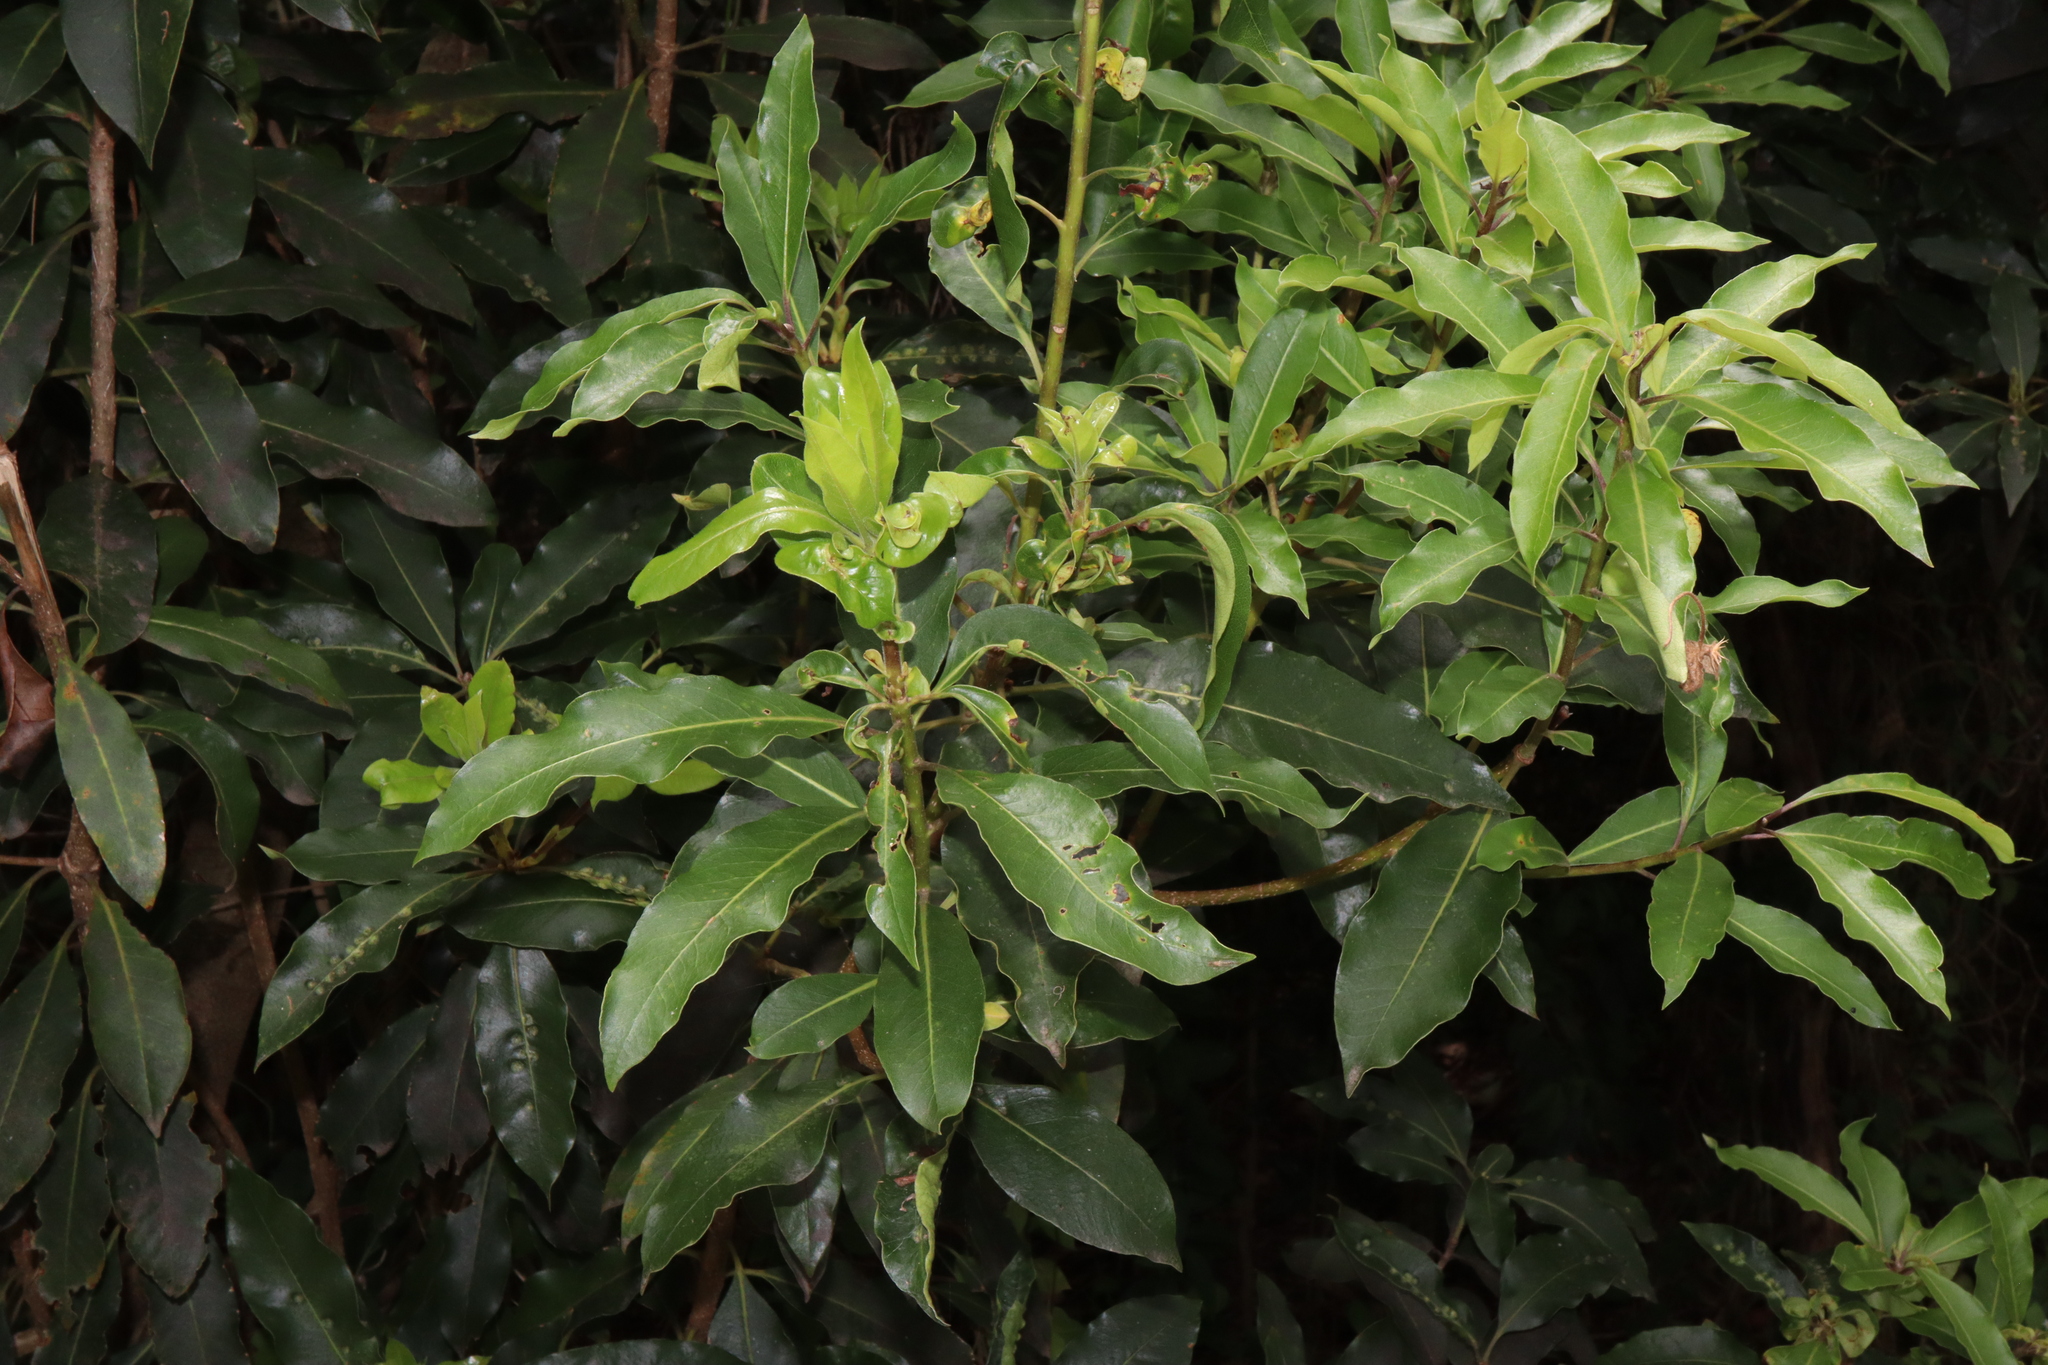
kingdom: Plantae
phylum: Tracheophyta
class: Magnoliopsida
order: Apiales
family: Pittosporaceae
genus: Pittosporum
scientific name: Pittosporum undulatum
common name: Australian cheesewood
